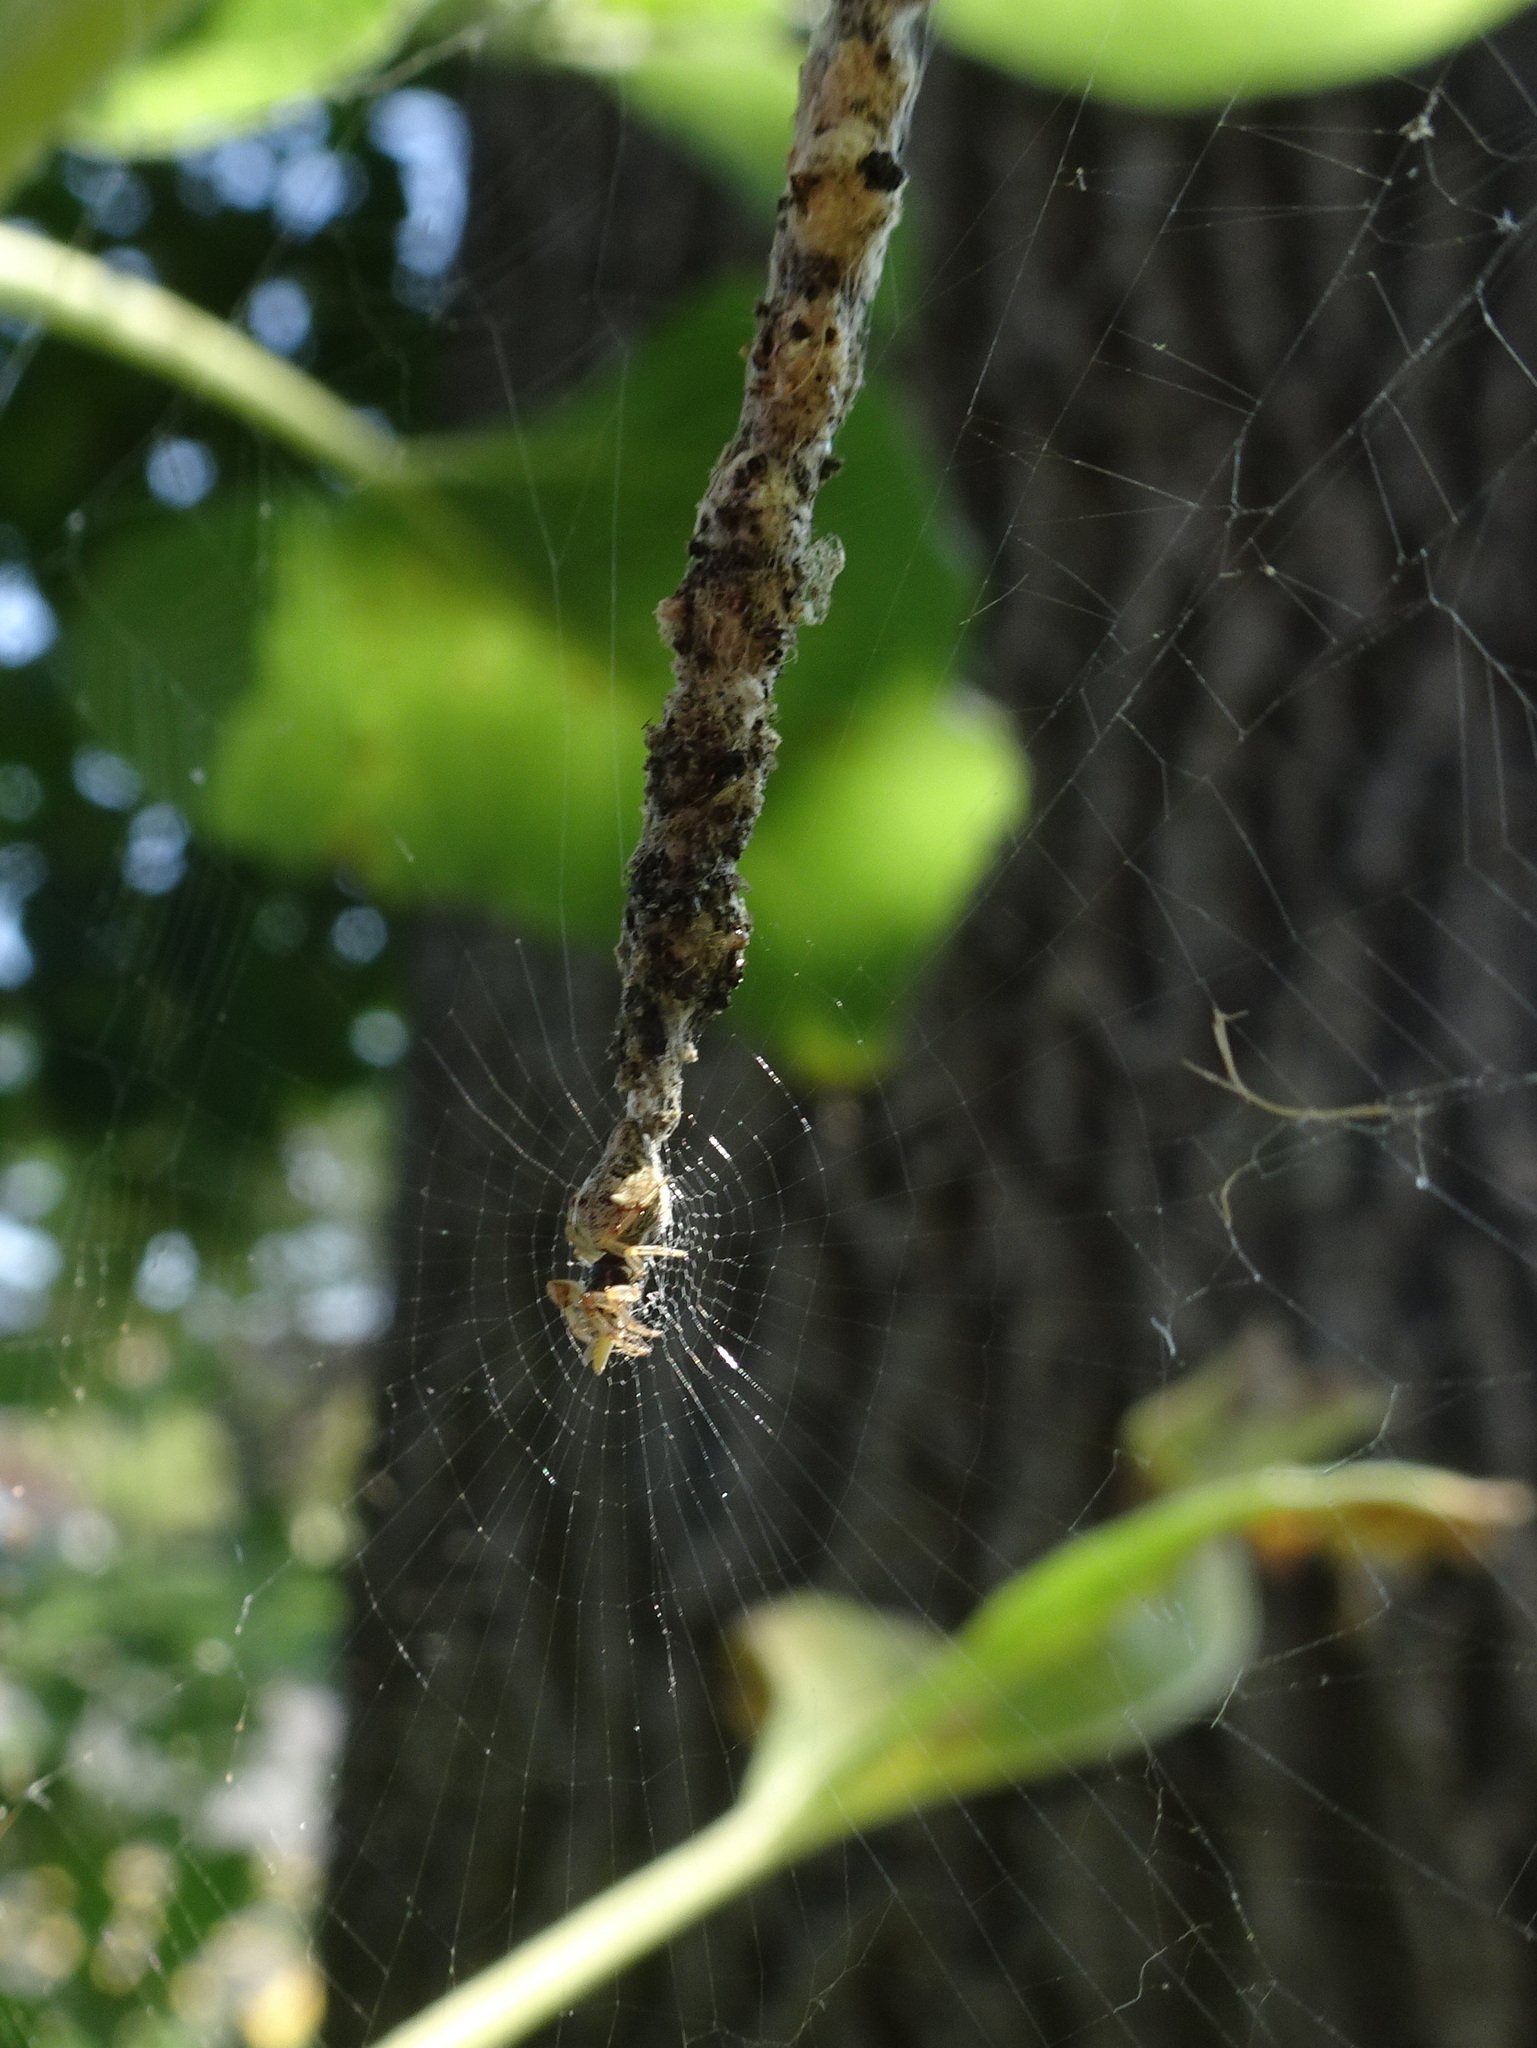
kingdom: Animalia
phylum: Arthropoda
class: Arachnida
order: Araneae
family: Araneidae
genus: Cyclosa
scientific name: Cyclosa turbinata
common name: Orb weavers
